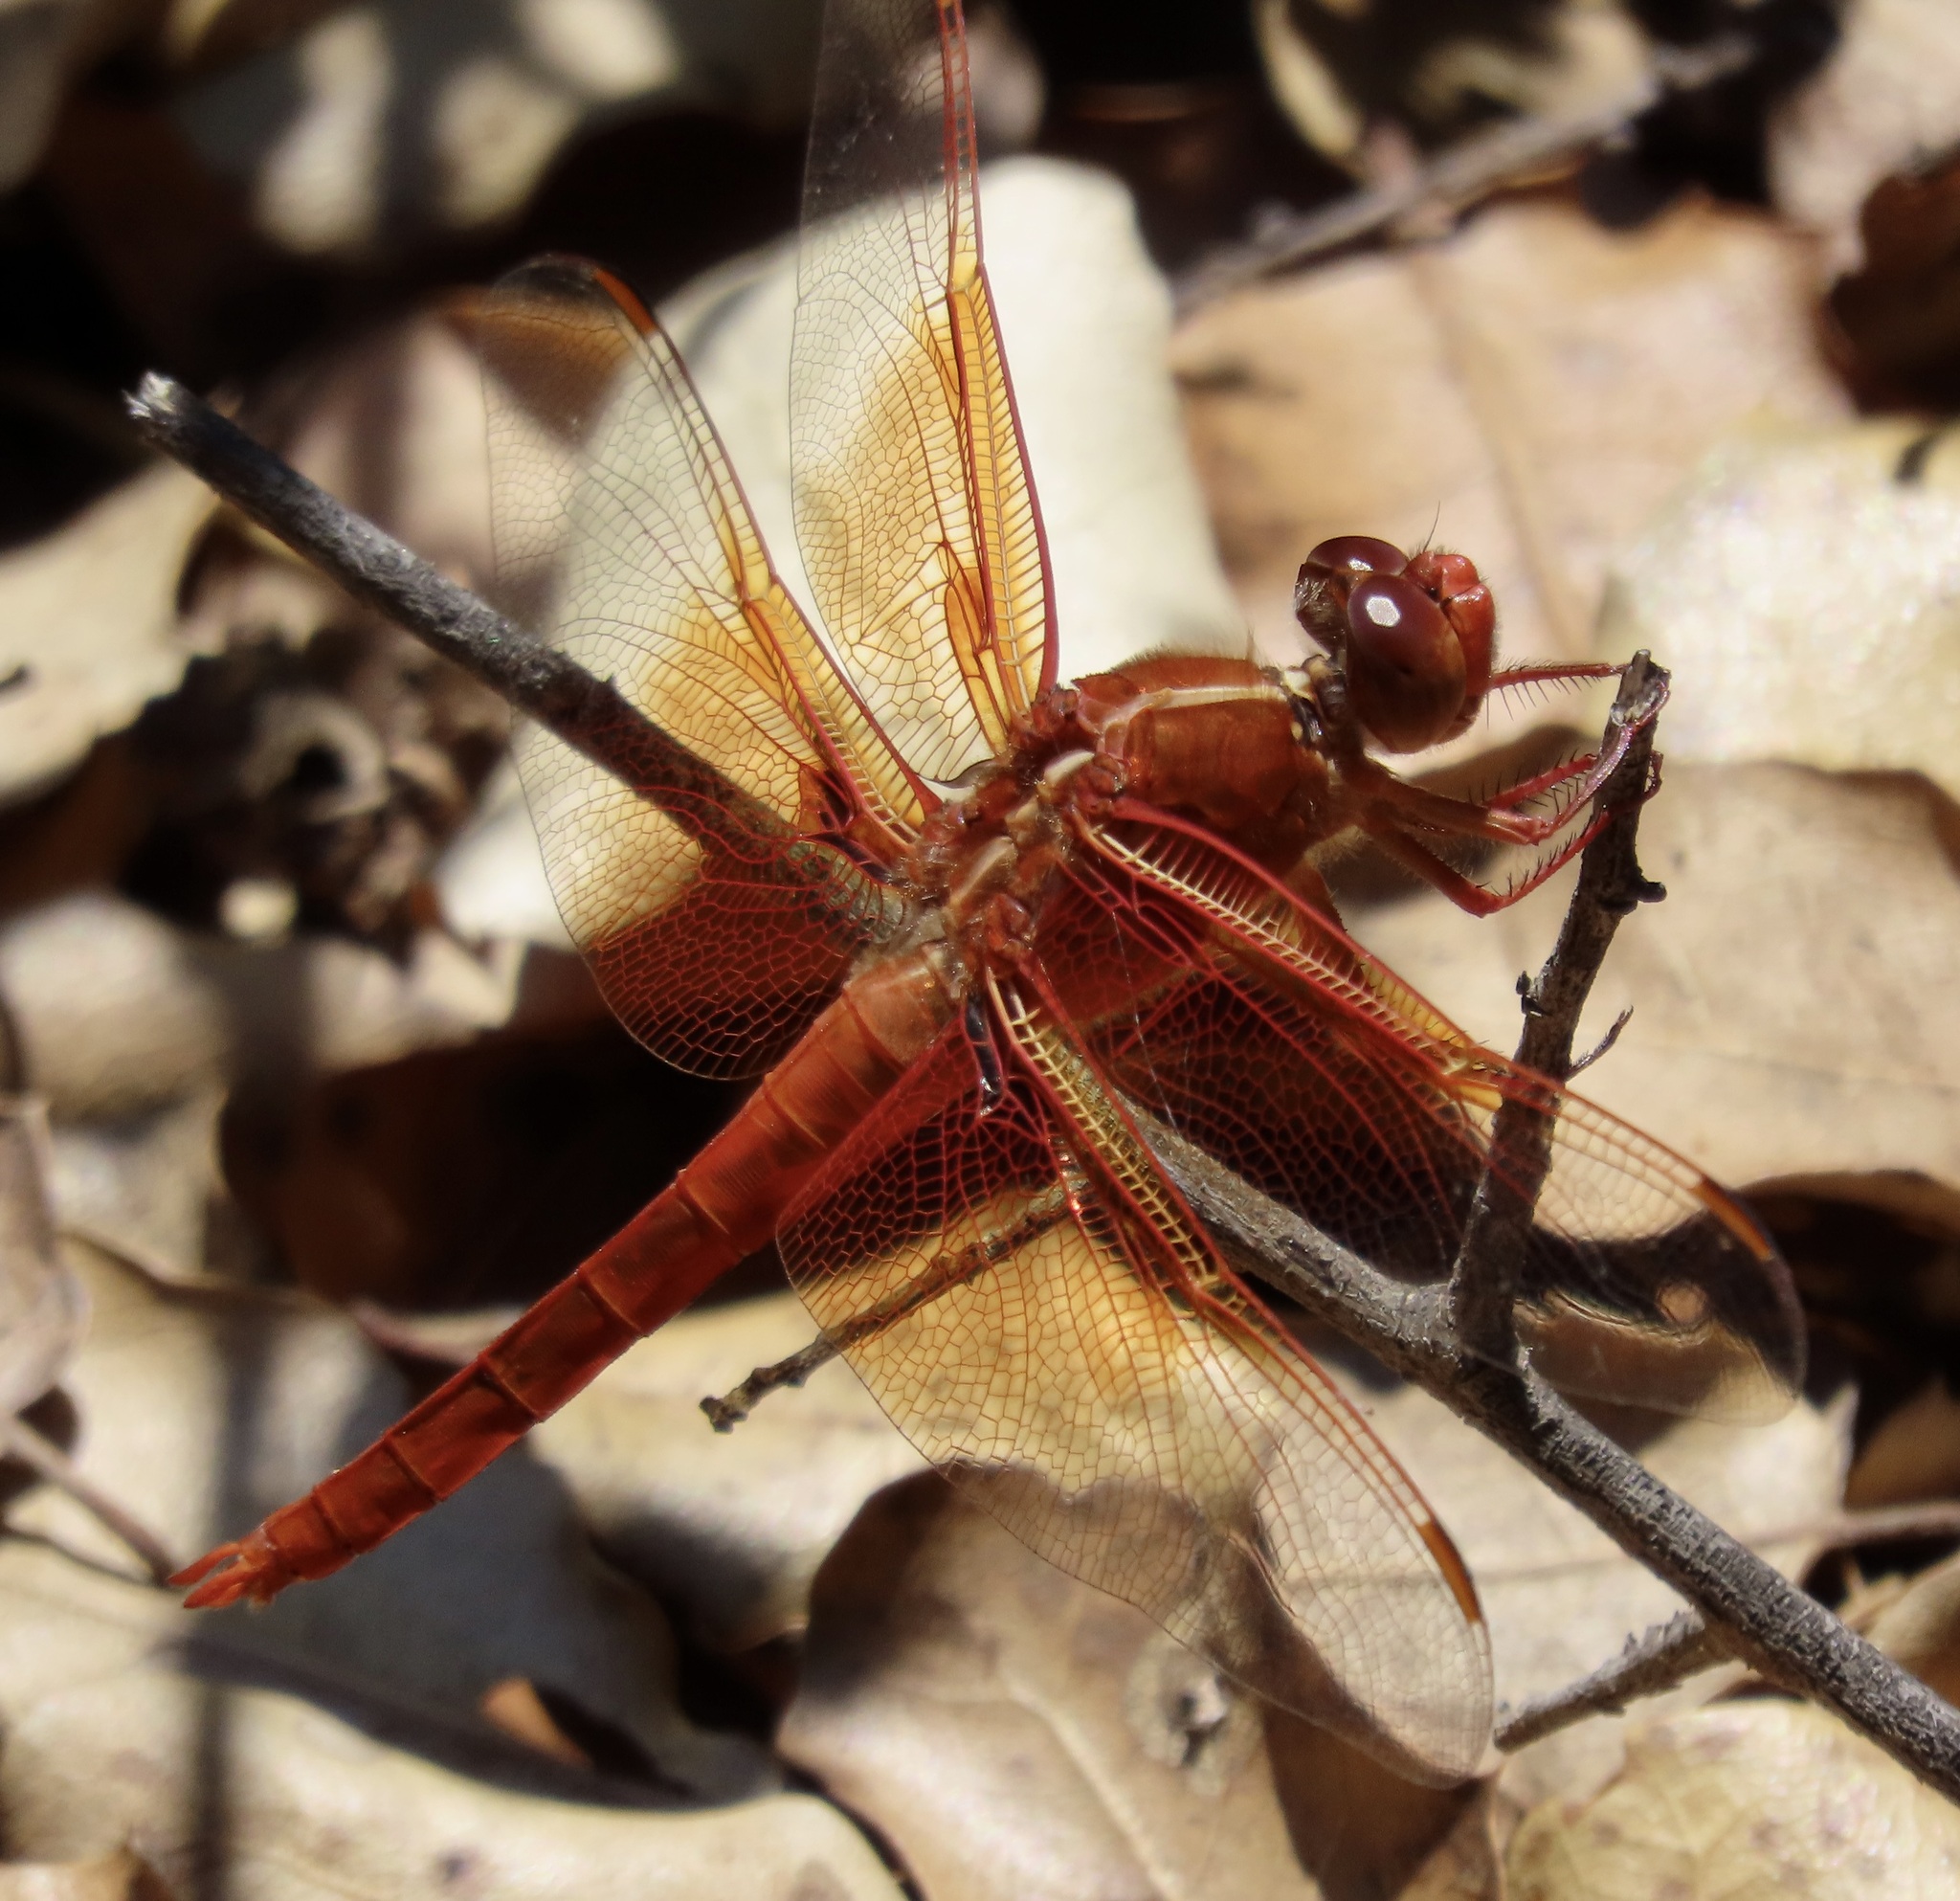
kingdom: Animalia
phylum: Arthropoda
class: Insecta
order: Odonata
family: Libellulidae
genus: Libellula
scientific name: Libellula saturata
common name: Flame skimmer
